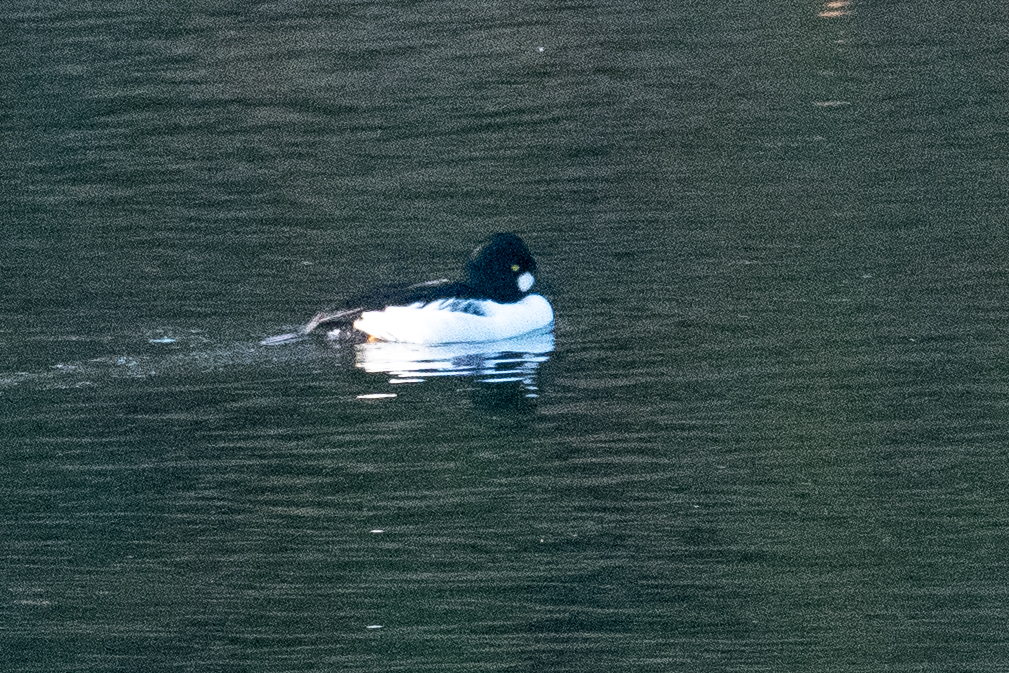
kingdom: Animalia
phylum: Chordata
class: Aves
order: Anseriformes
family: Anatidae
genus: Bucephala
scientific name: Bucephala clangula
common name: Common goldeneye
